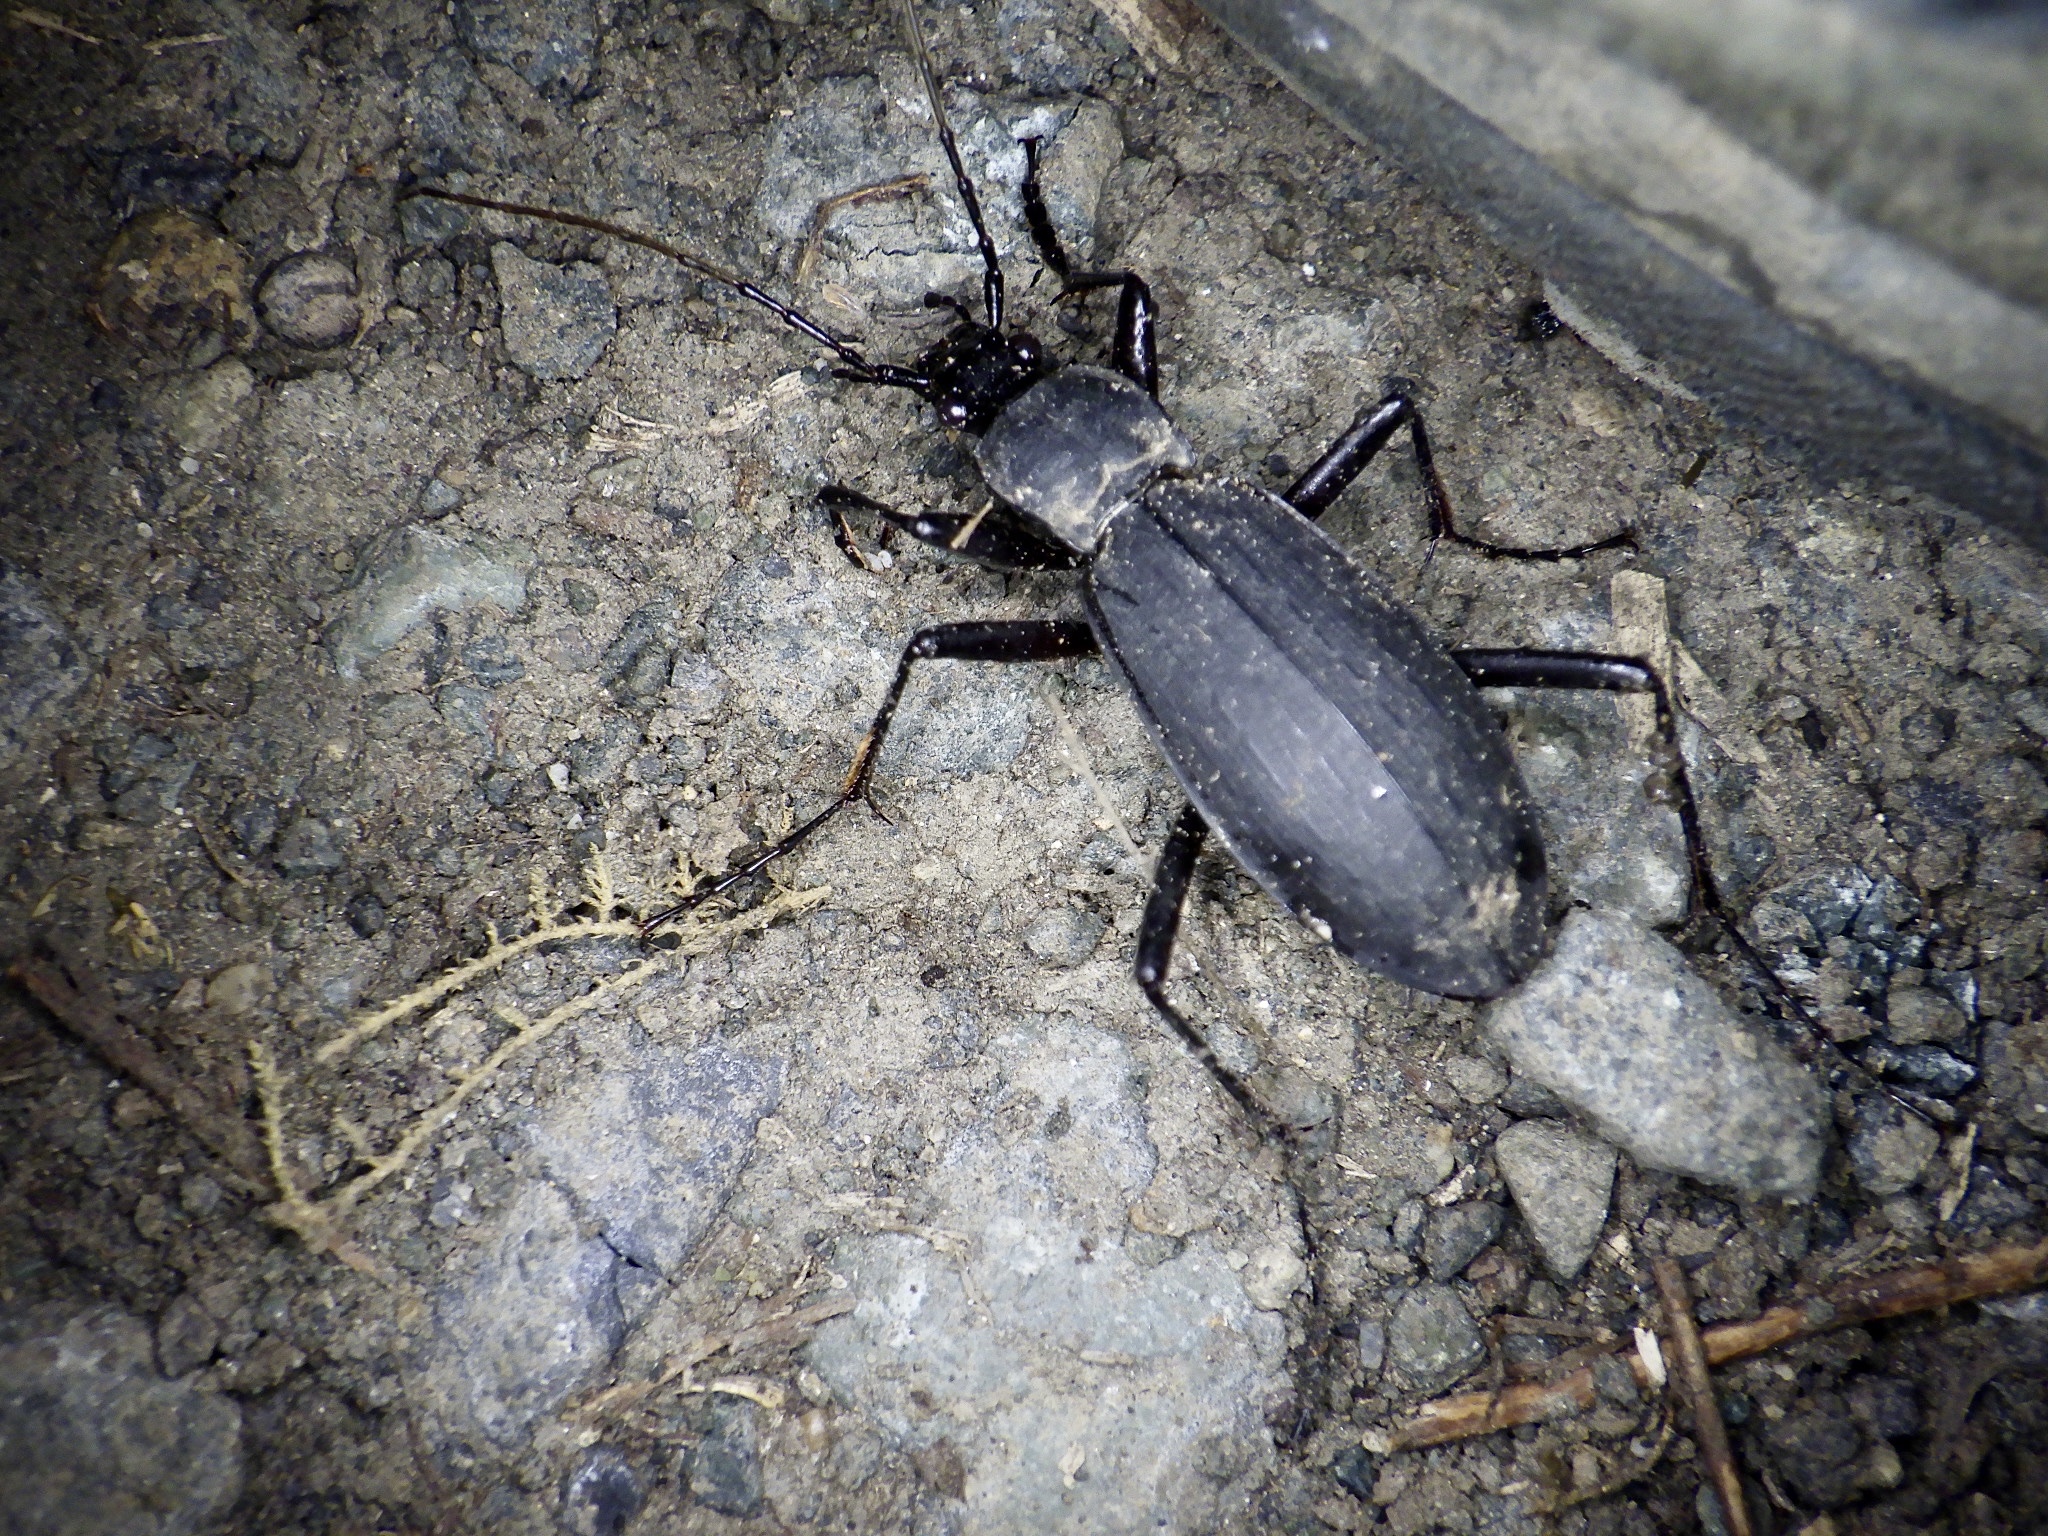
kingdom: Animalia
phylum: Arthropoda
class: Insecta
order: Coleoptera
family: Carabidae
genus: Carabus
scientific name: Carabus procerulus
